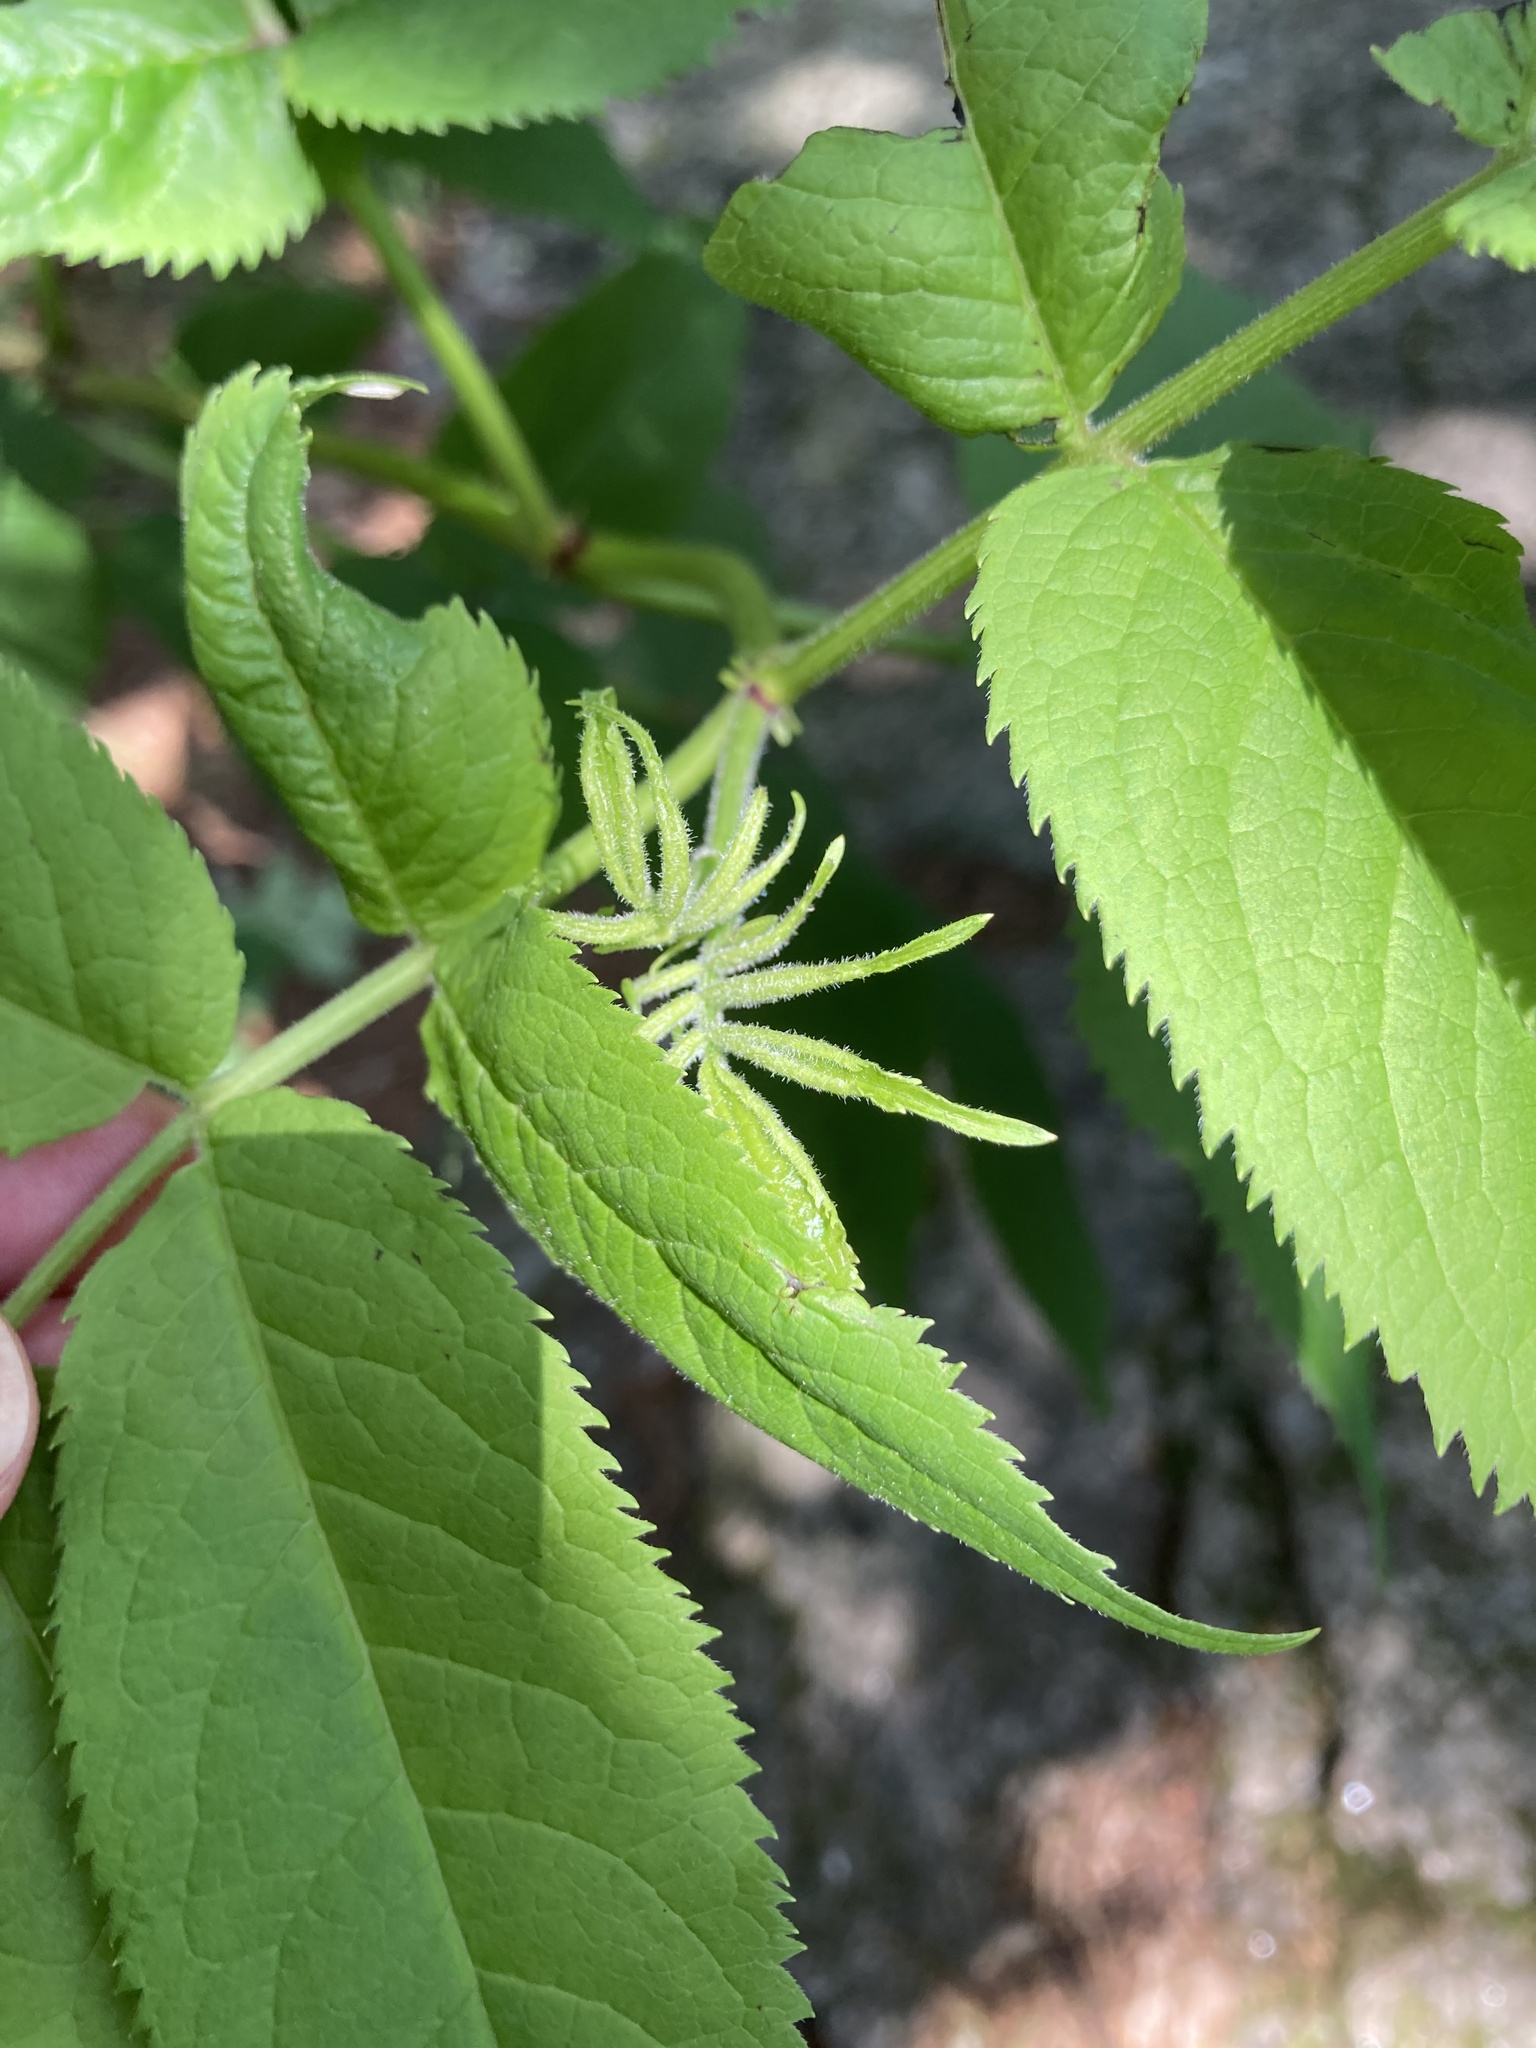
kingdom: Plantae
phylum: Tracheophyta
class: Magnoliopsida
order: Dipsacales
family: Viburnaceae
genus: Sambucus
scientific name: Sambucus racemosa
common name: Red-berried elder
